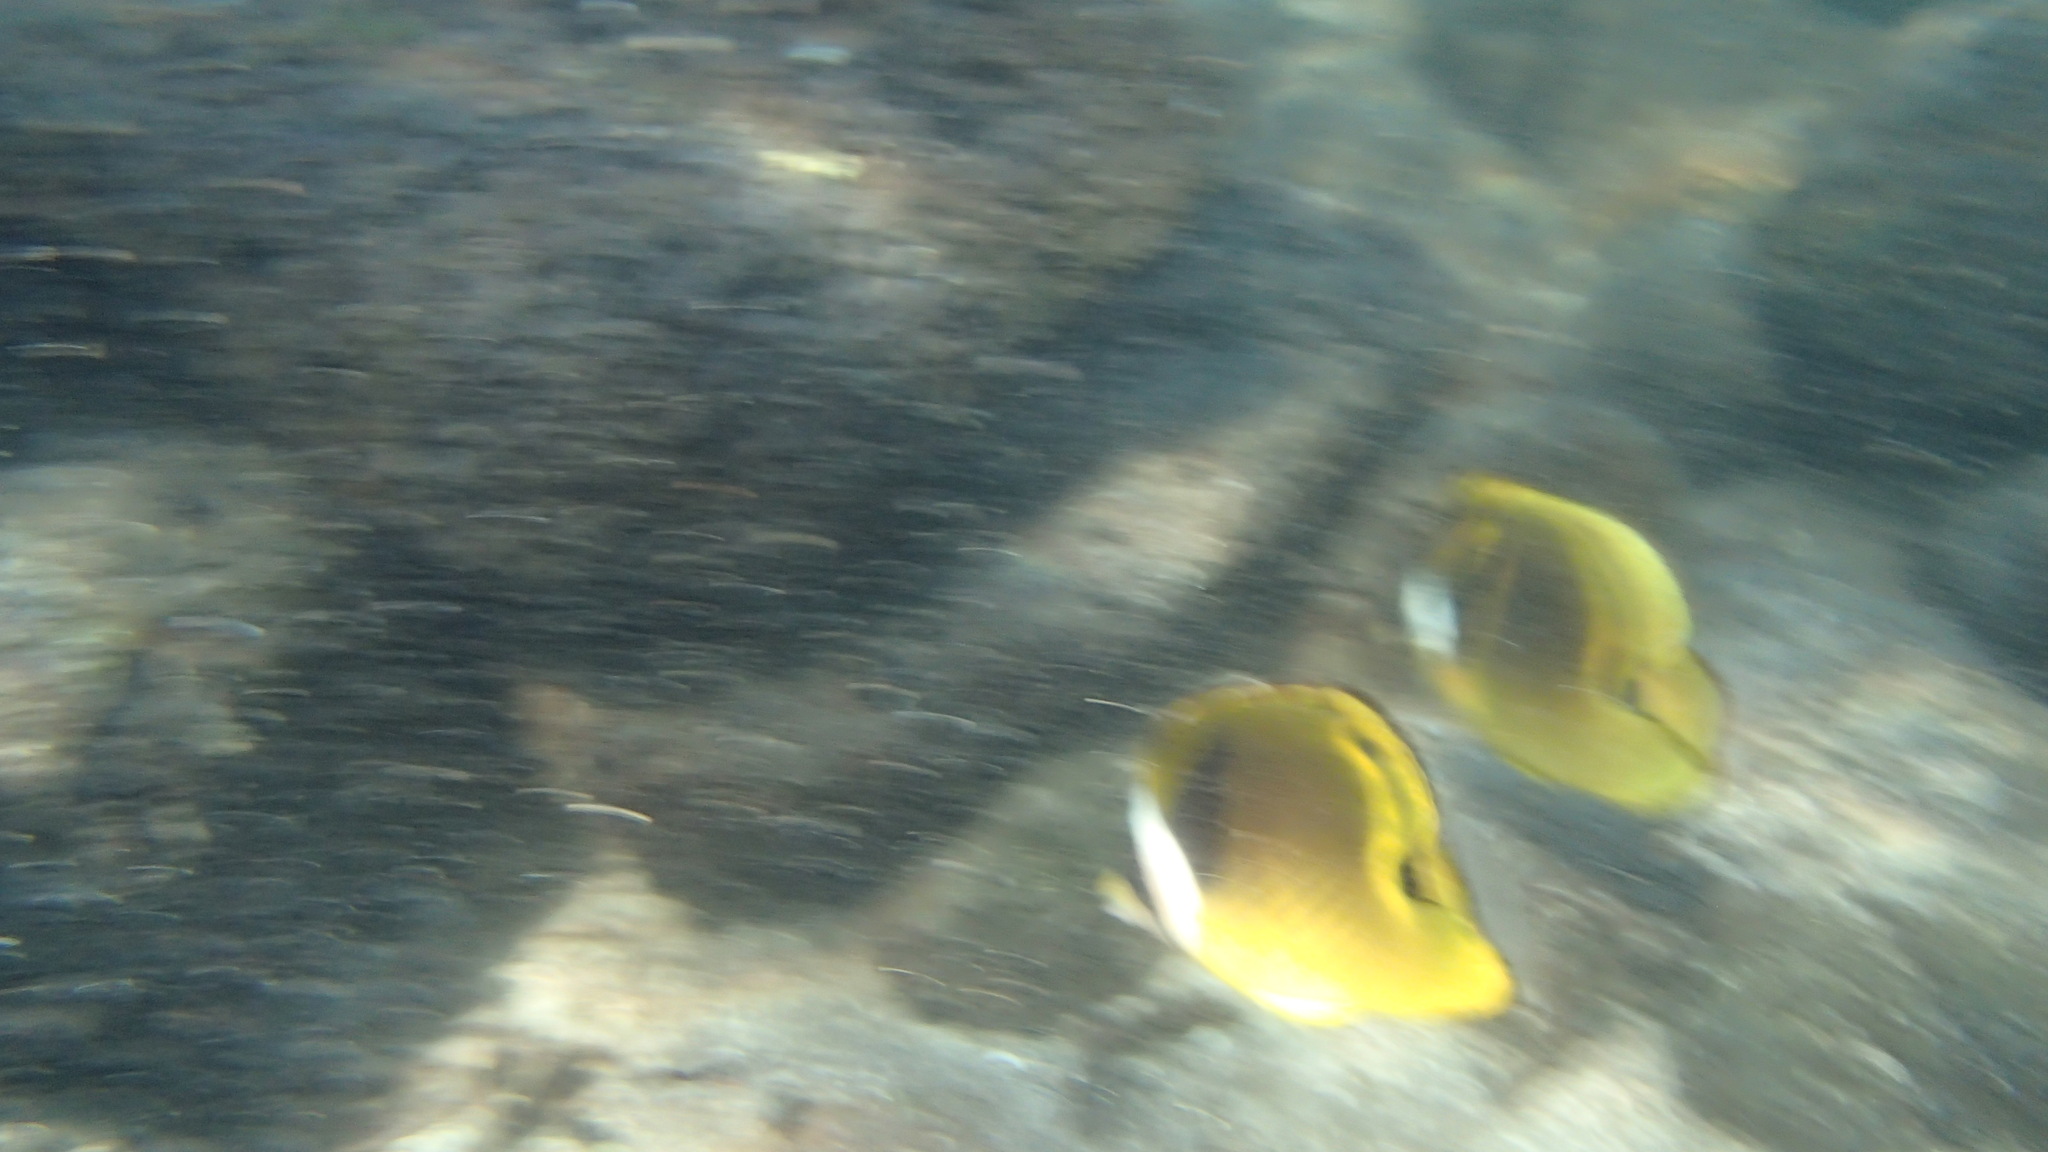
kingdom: Animalia
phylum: Chordata
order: Perciformes
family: Chaetodontidae
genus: Chaetodon
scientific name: Chaetodon lunula
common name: Raccoon butterflyfish
